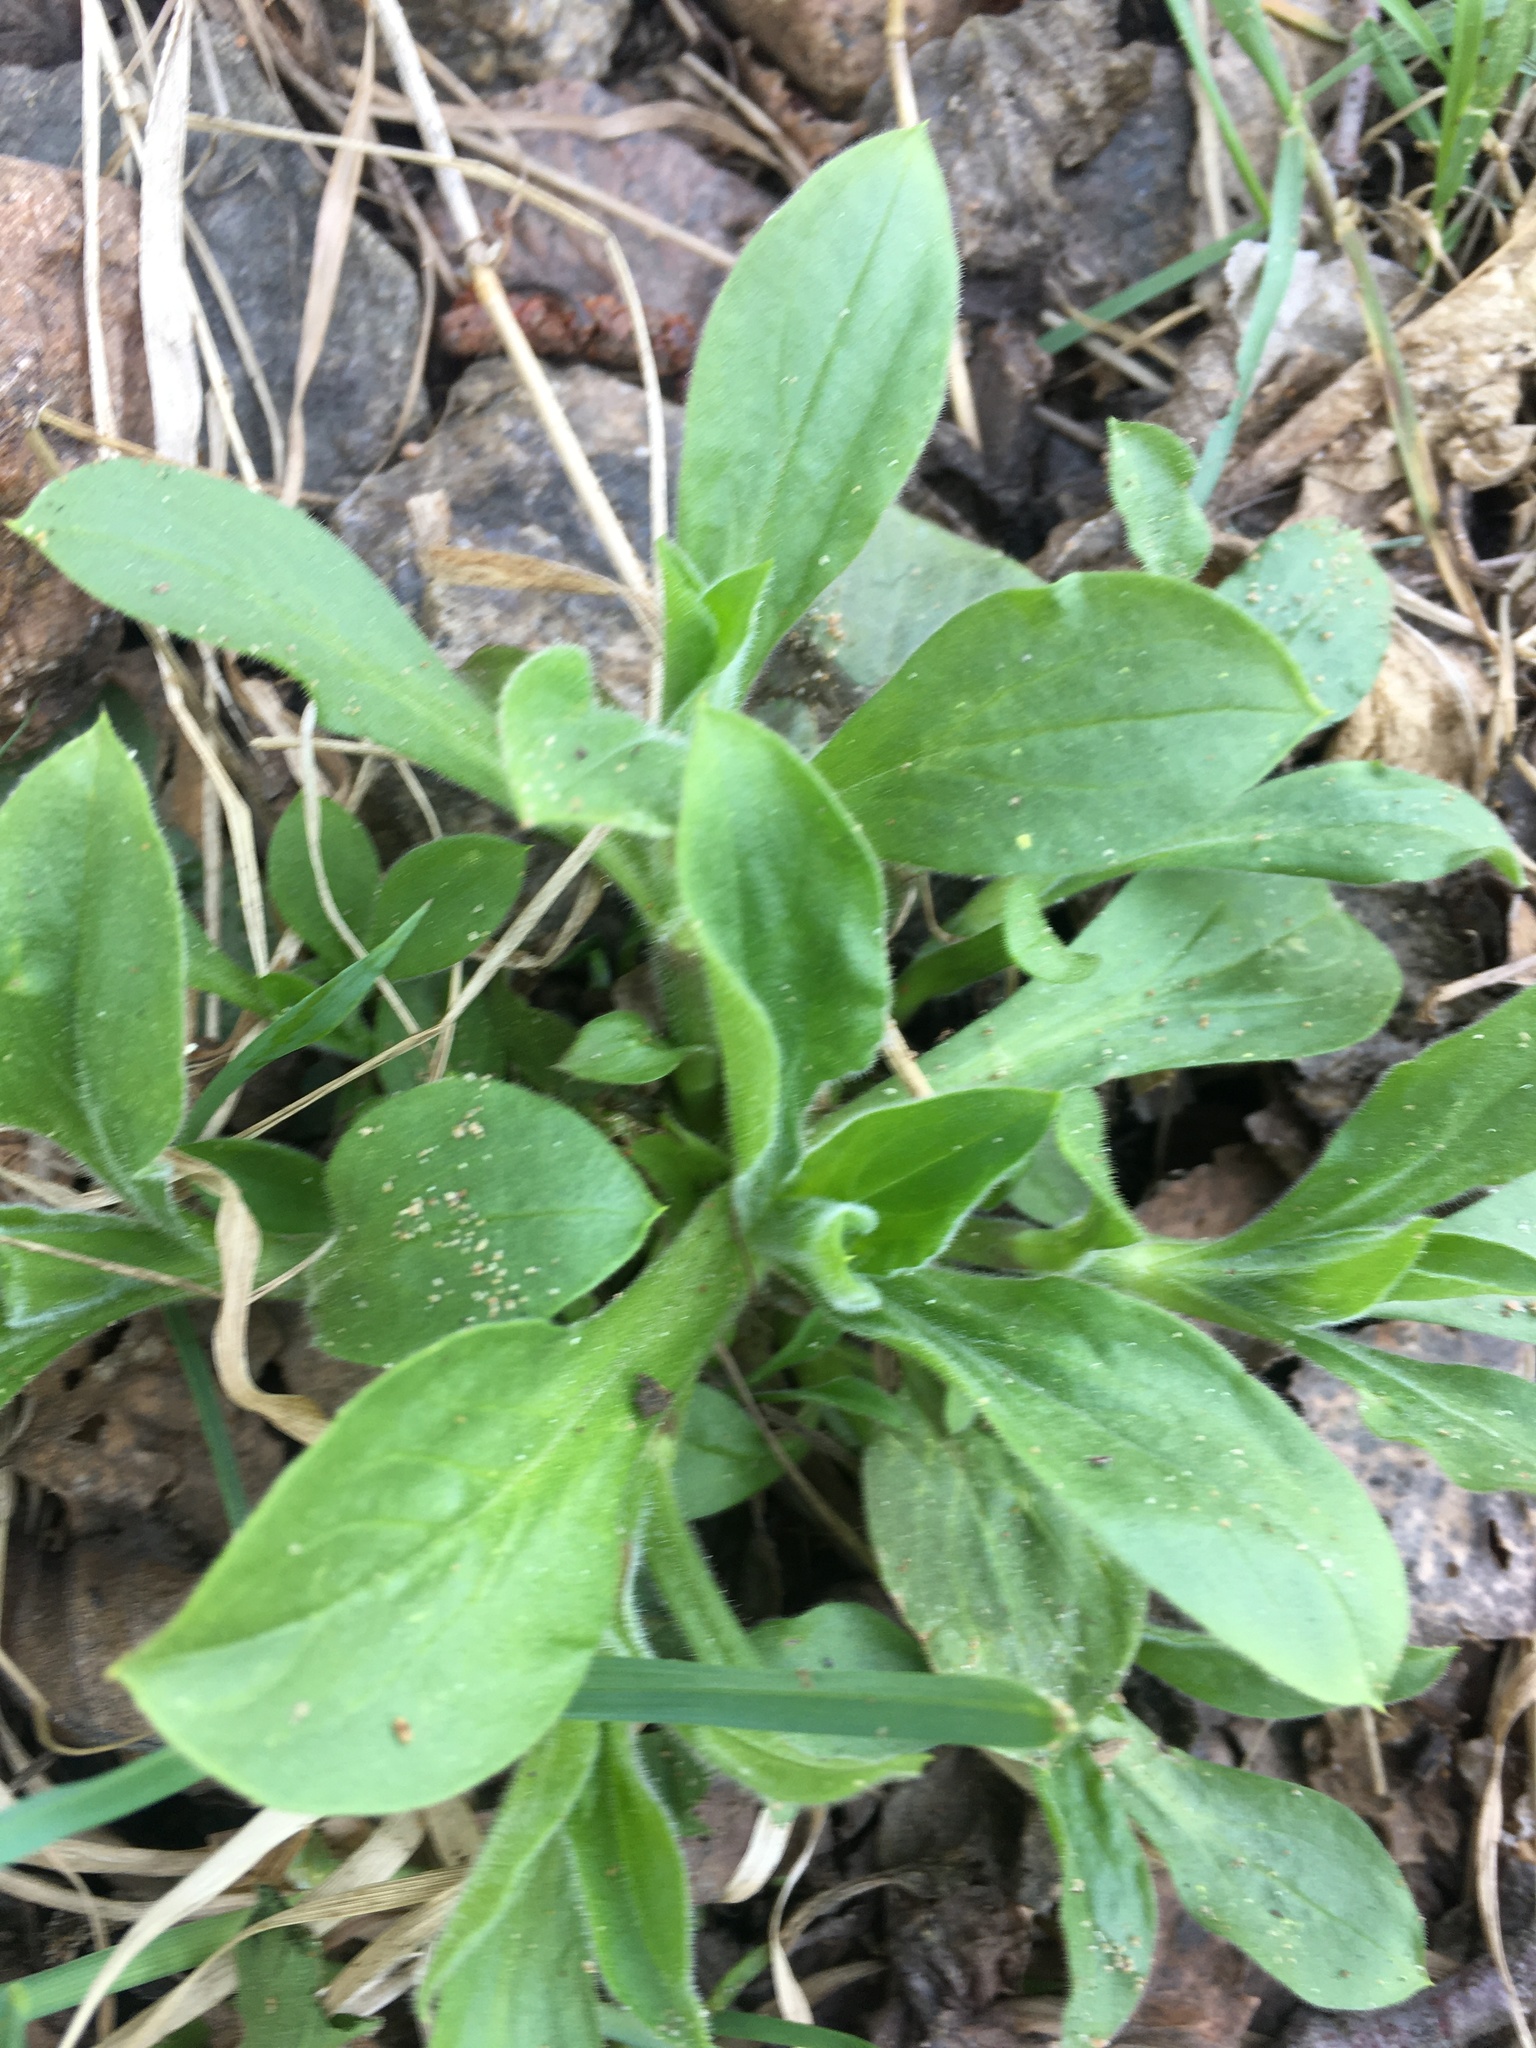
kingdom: Plantae
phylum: Tracheophyta
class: Magnoliopsida
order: Caryophyllales
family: Caryophyllaceae
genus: Silene
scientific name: Silene latifolia
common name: White campion
